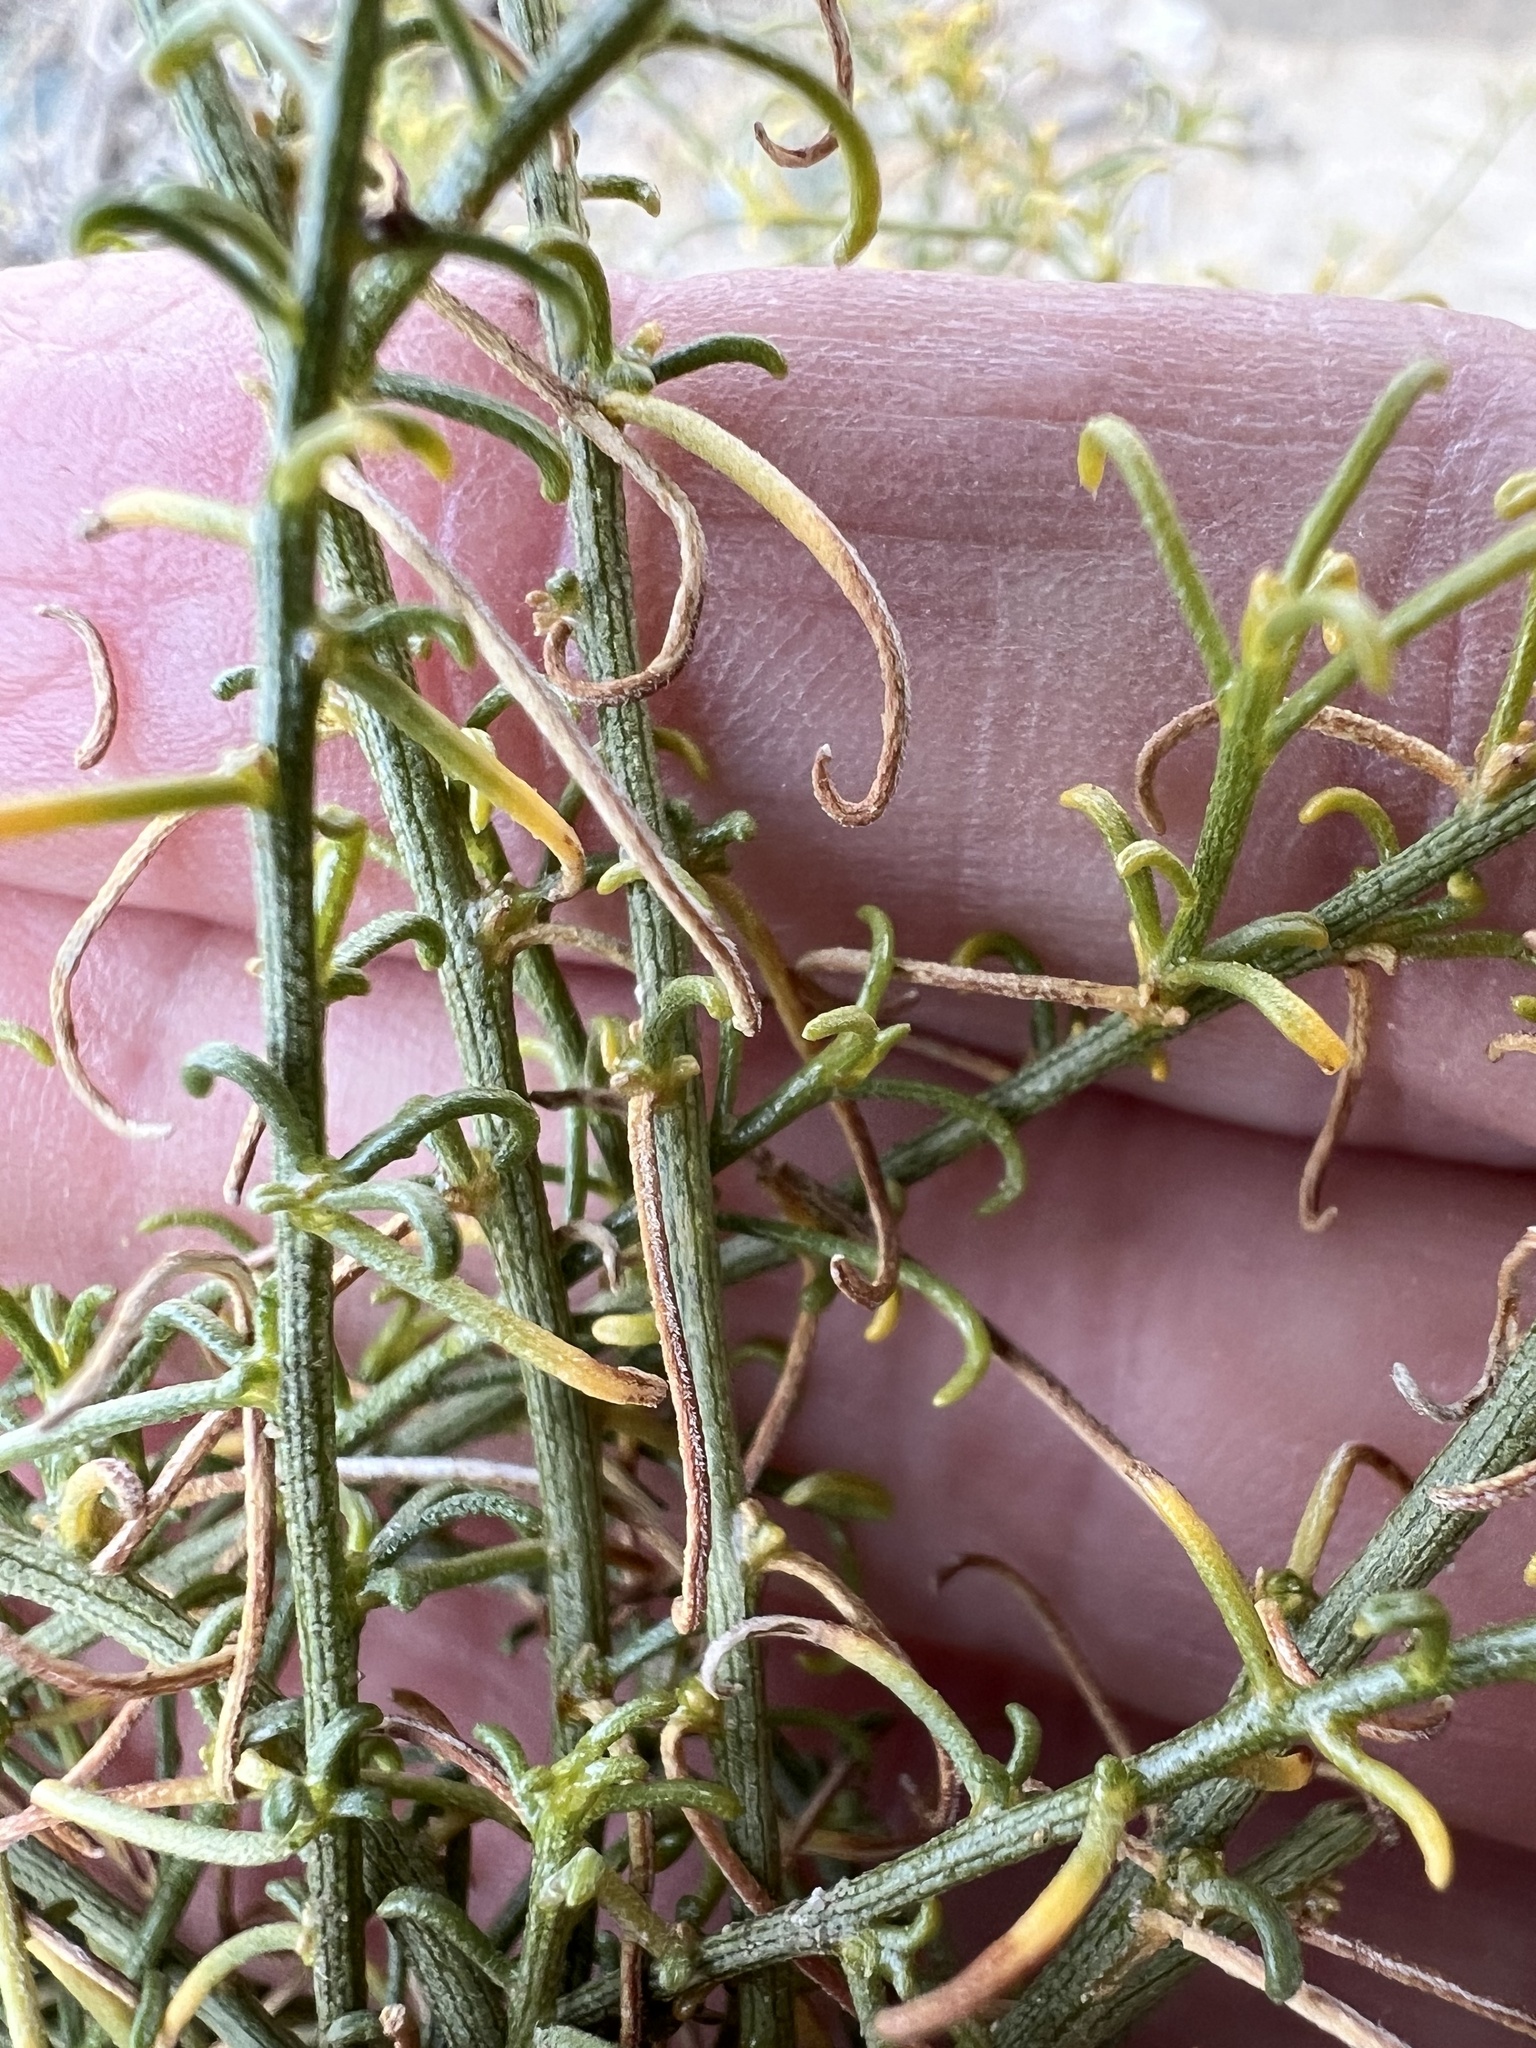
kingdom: Plantae
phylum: Tracheophyta
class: Magnoliopsida
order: Asterales
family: Asteraceae
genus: Ambrosia
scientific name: Ambrosia salsola
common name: Burrobrush
